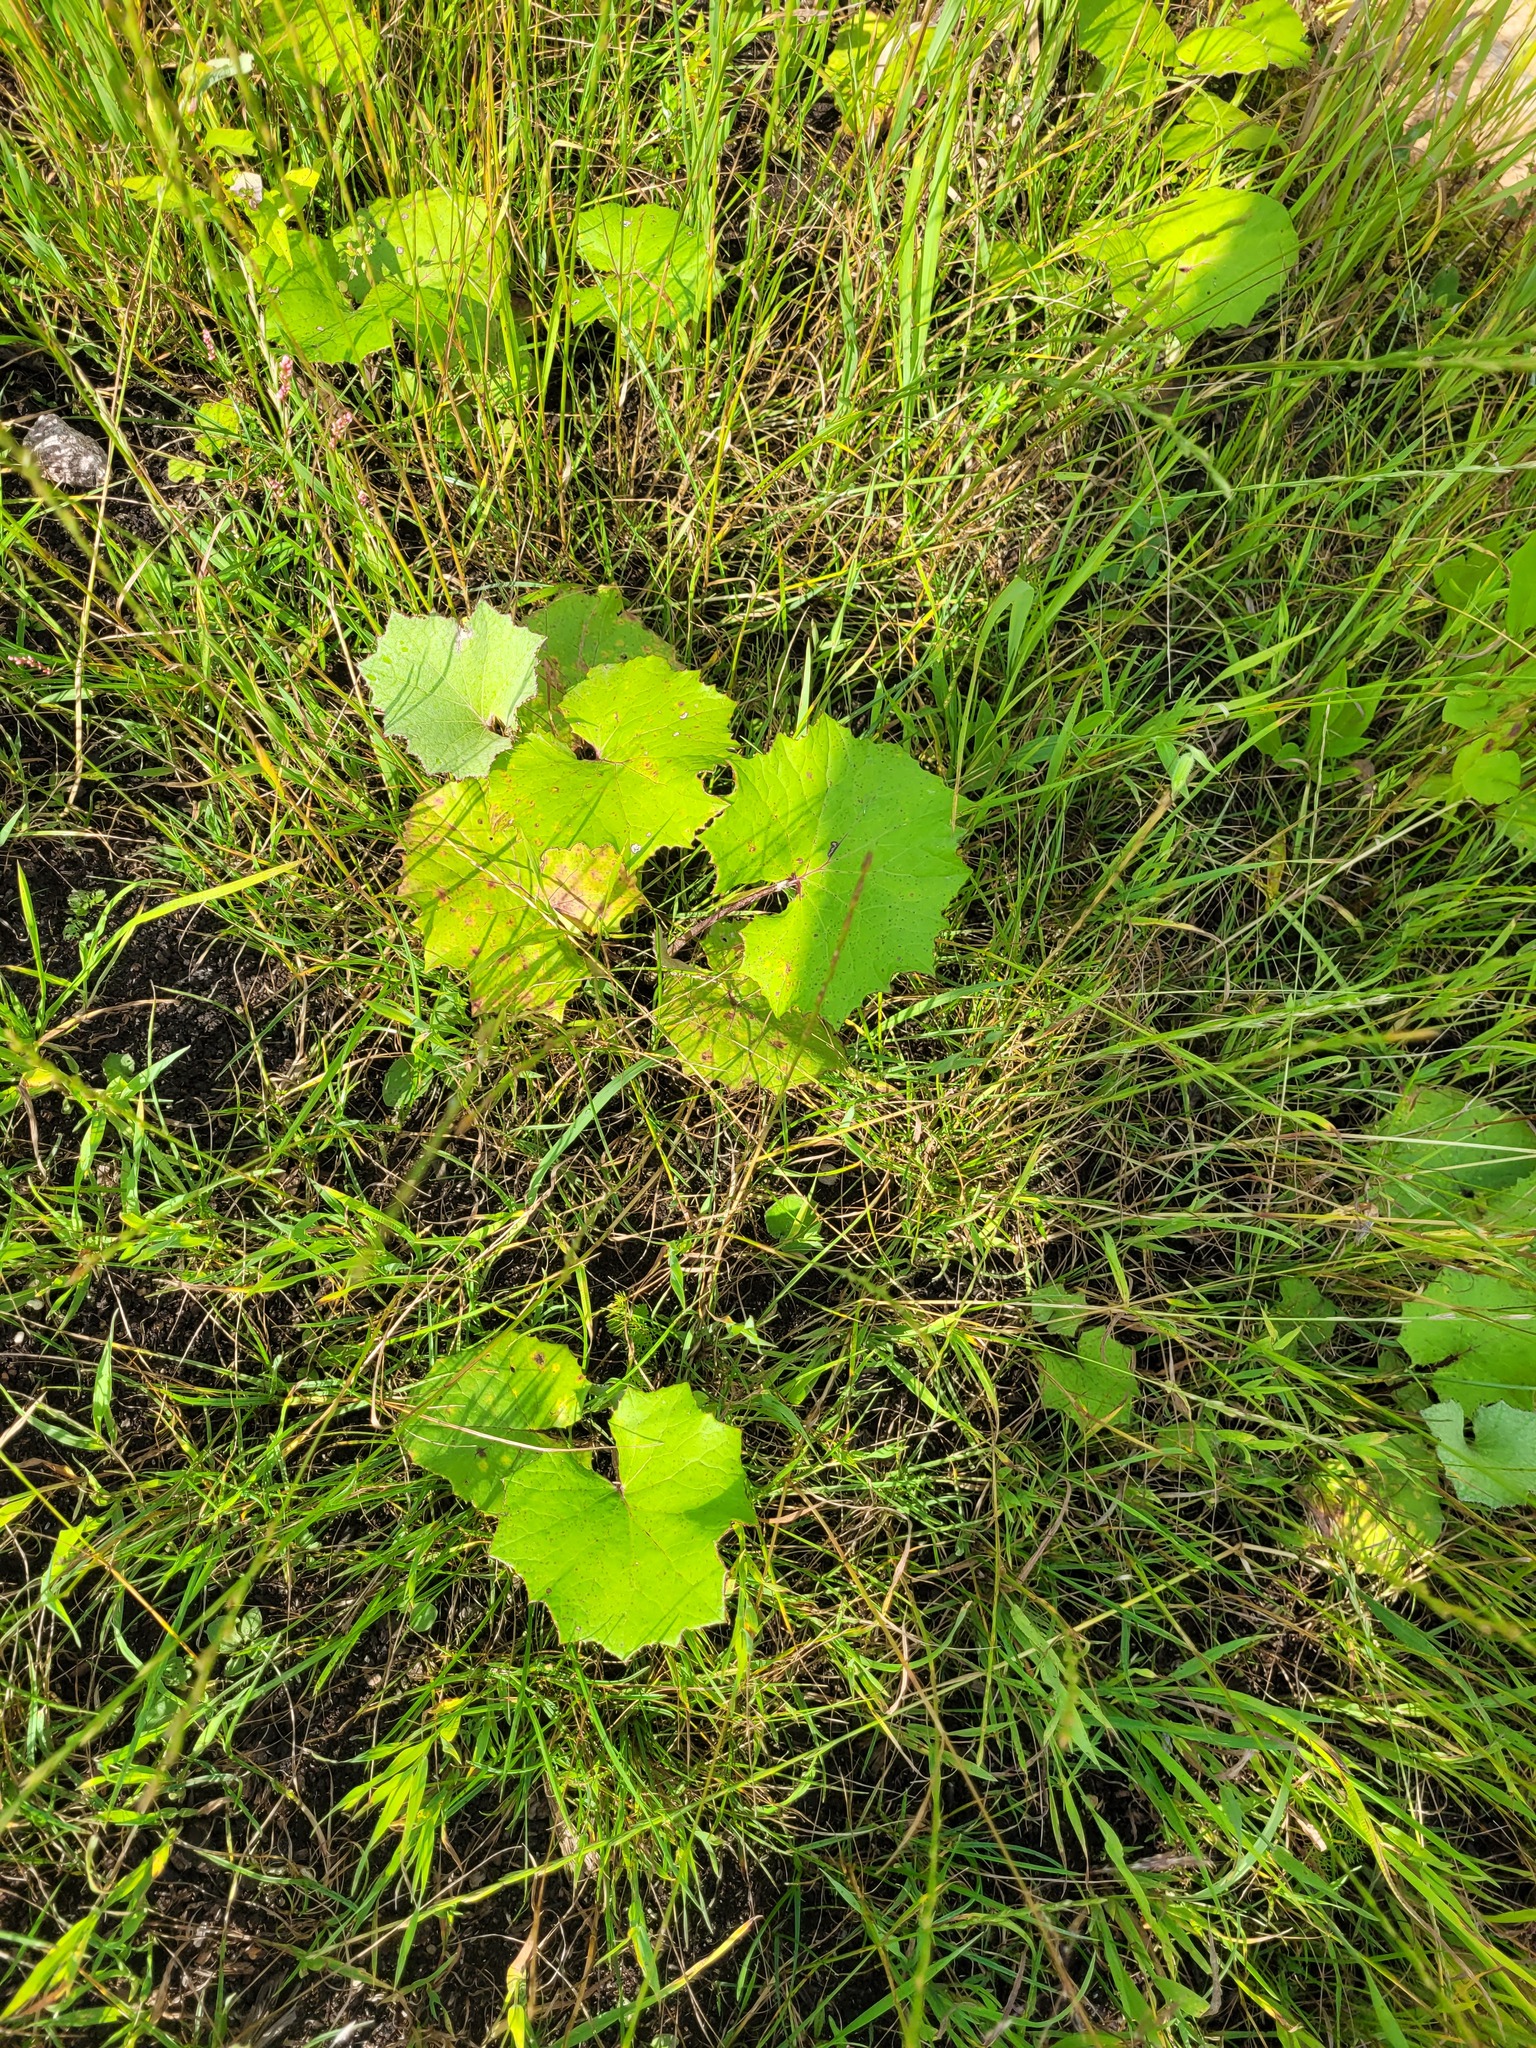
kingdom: Plantae
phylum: Tracheophyta
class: Magnoliopsida
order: Asterales
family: Asteraceae
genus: Tussilago
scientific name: Tussilago farfara
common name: Coltsfoot
